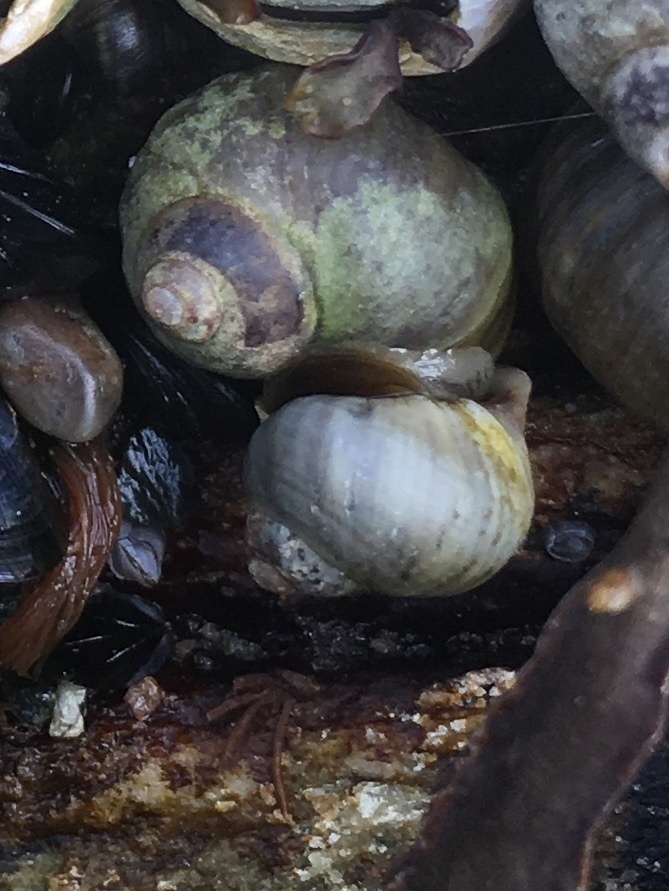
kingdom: Animalia
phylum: Mollusca
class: Gastropoda
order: Littorinimorpha
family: Littorinidae
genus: Littorina
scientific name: Littorina littorea
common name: Common periwinkle
